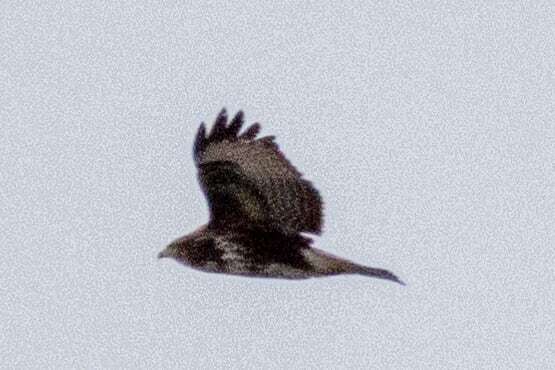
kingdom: Animalia
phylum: Chordata
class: Aves
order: Accipitriformes
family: Accipitridae
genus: Buteo
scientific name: Buteo buteo
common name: Common buzzard
